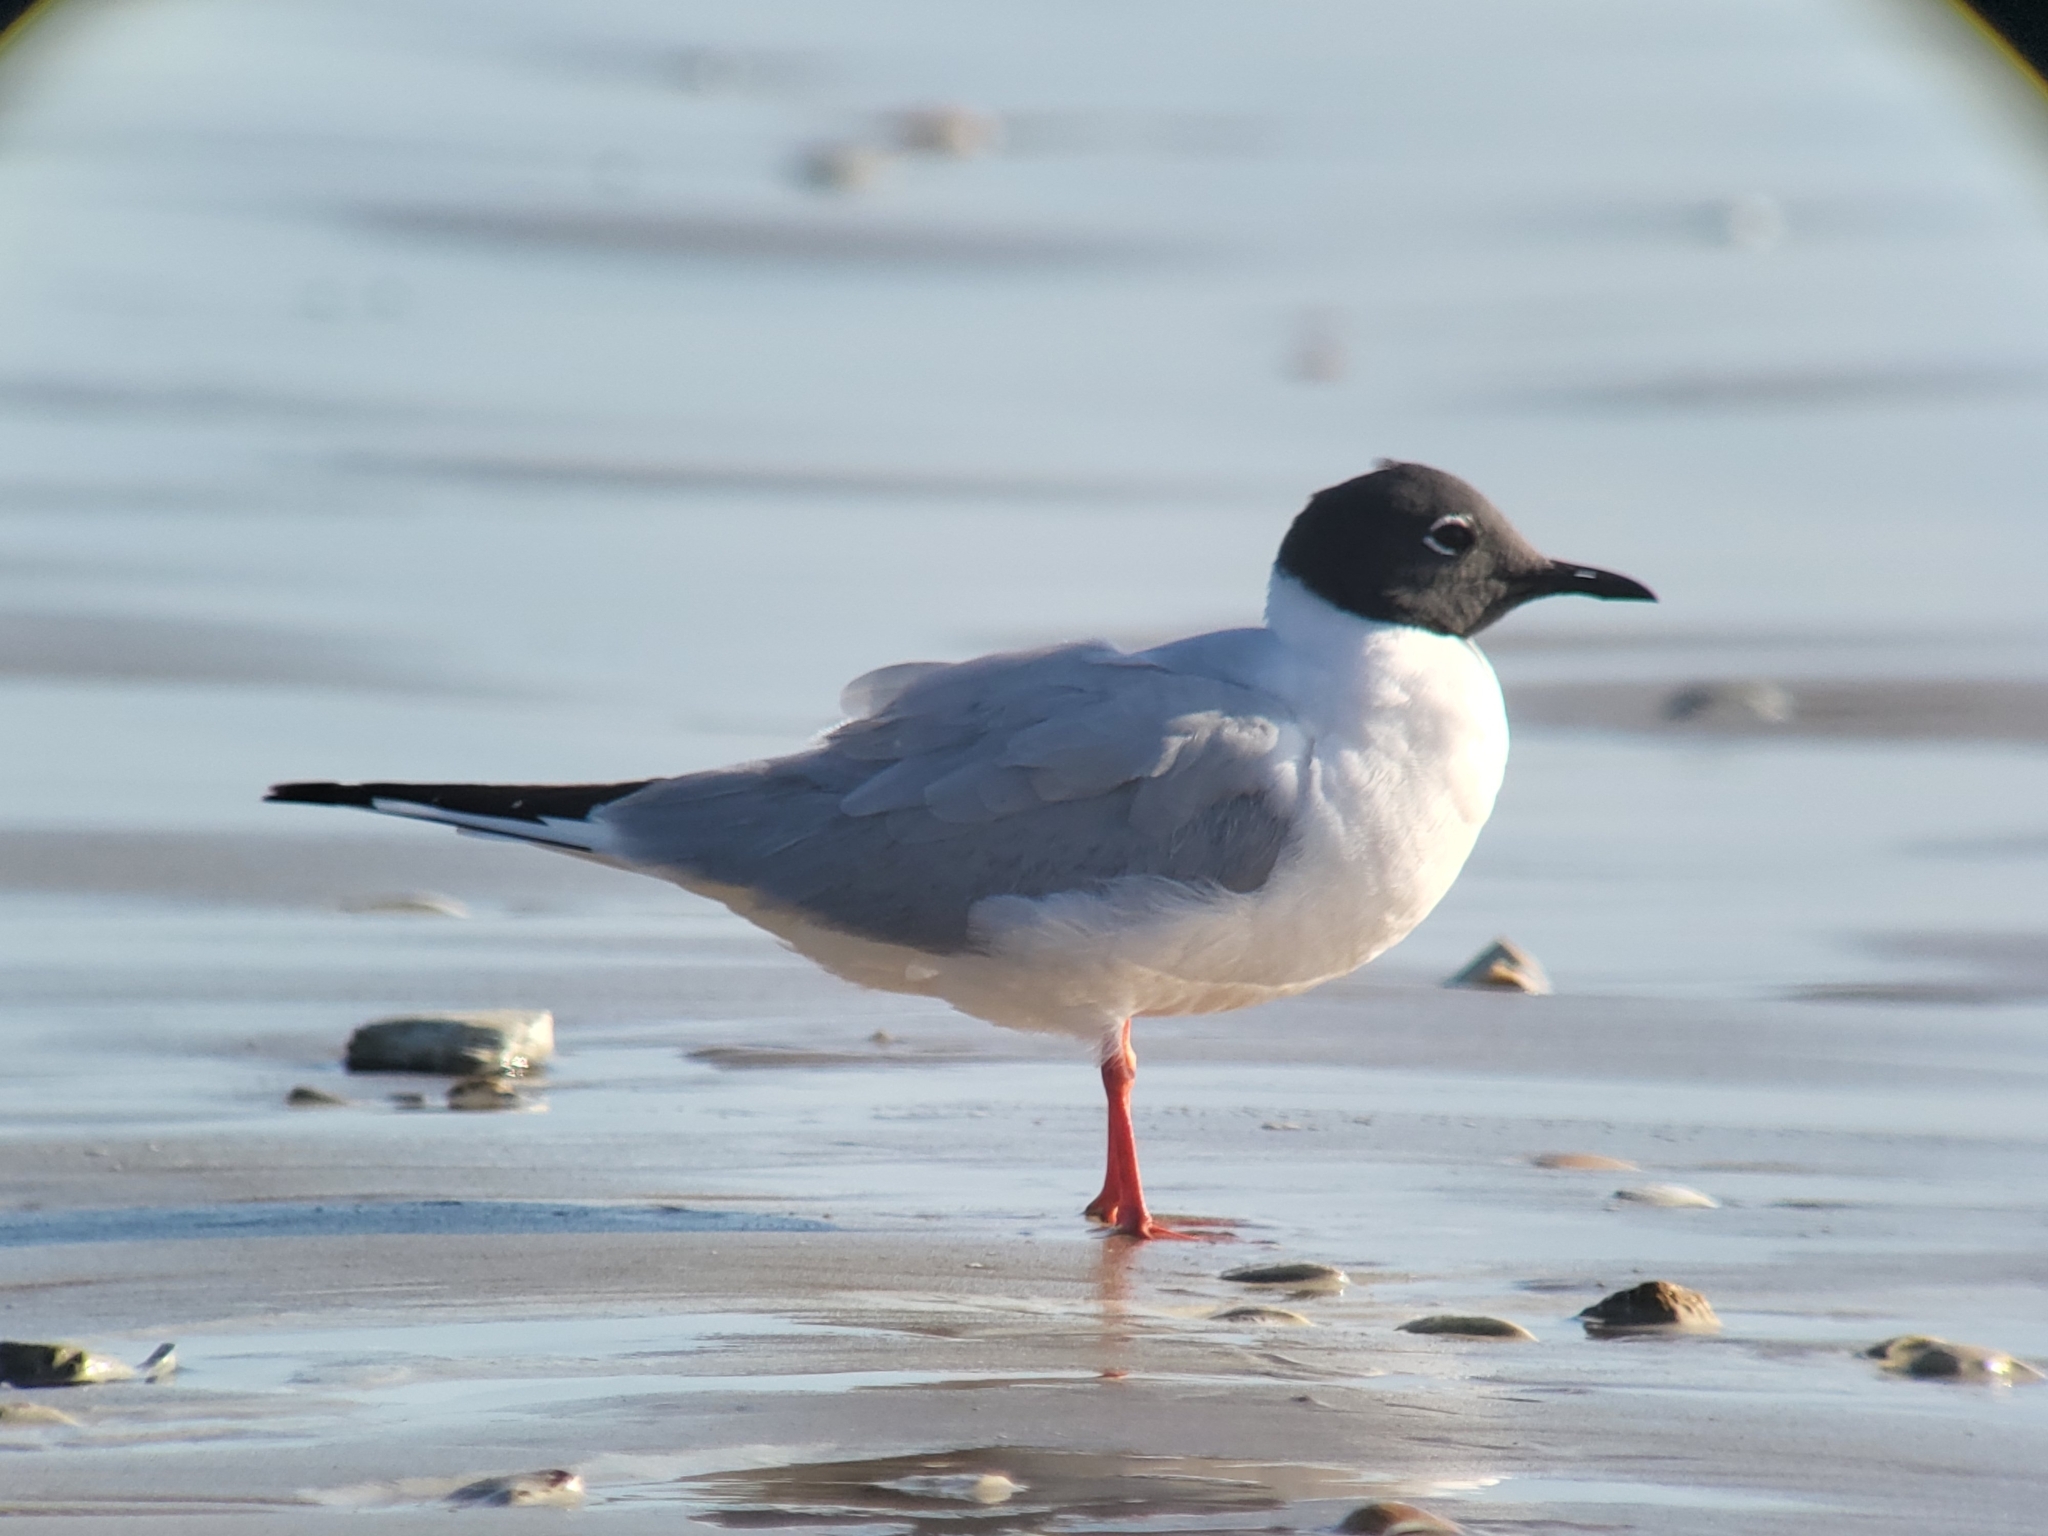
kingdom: Animalia
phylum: Chordata
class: Aves
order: Charadriiformes
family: Laridae
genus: Chroicocephalus
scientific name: Chroicocephalus philadelphia
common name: Bonaparte's gull
